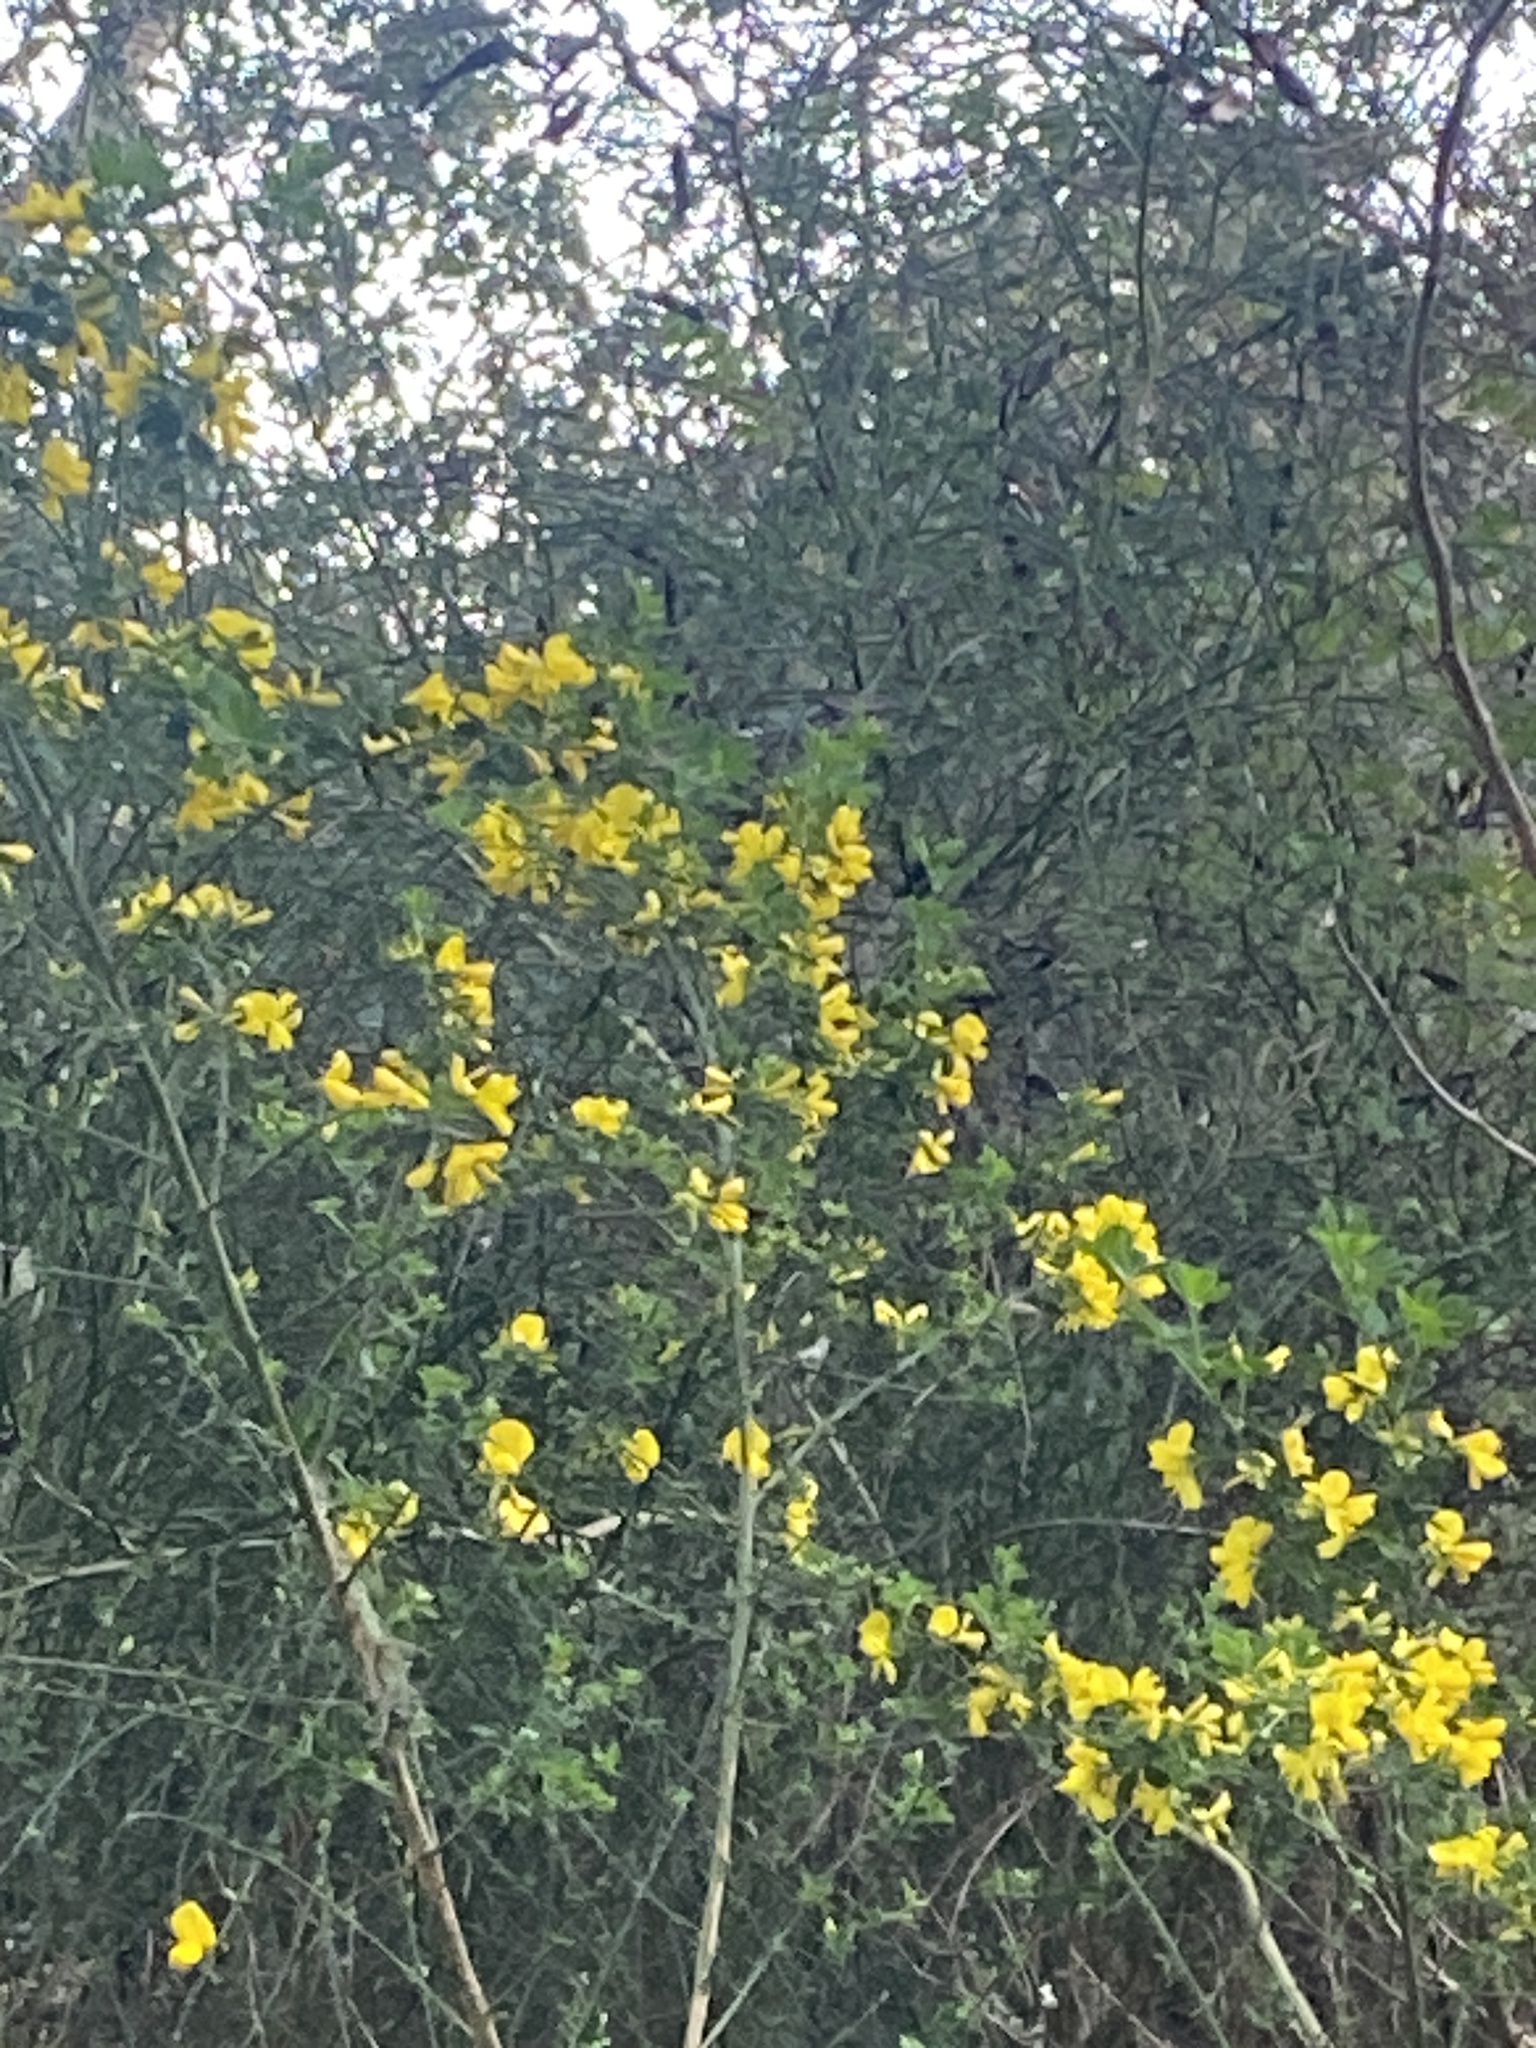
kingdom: Plantae
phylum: Tracheophyta
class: Magnoliopsida
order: Fabales
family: Fabaceae
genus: Genista
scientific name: Genista monspessulana
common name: Montpellier broom
